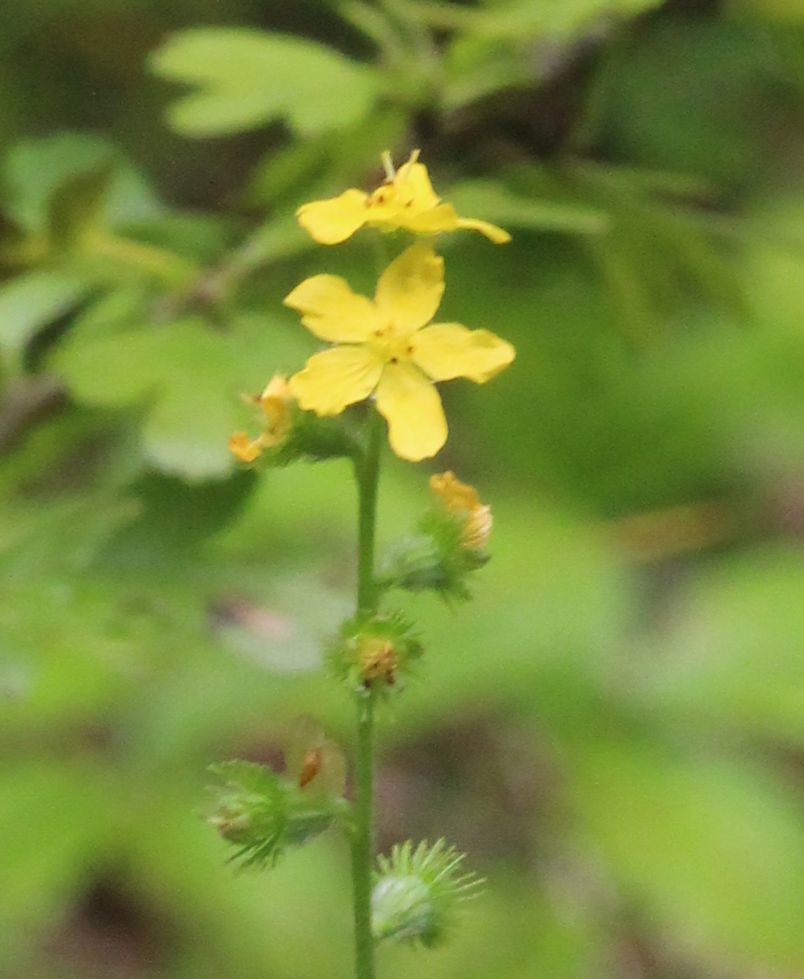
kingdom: Plantae
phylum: Tracheophyta
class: Magnoliopsida
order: Rosales
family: Rosaceae
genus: Agrimonia
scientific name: Agrimonia eupatoria
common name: Agrimony
